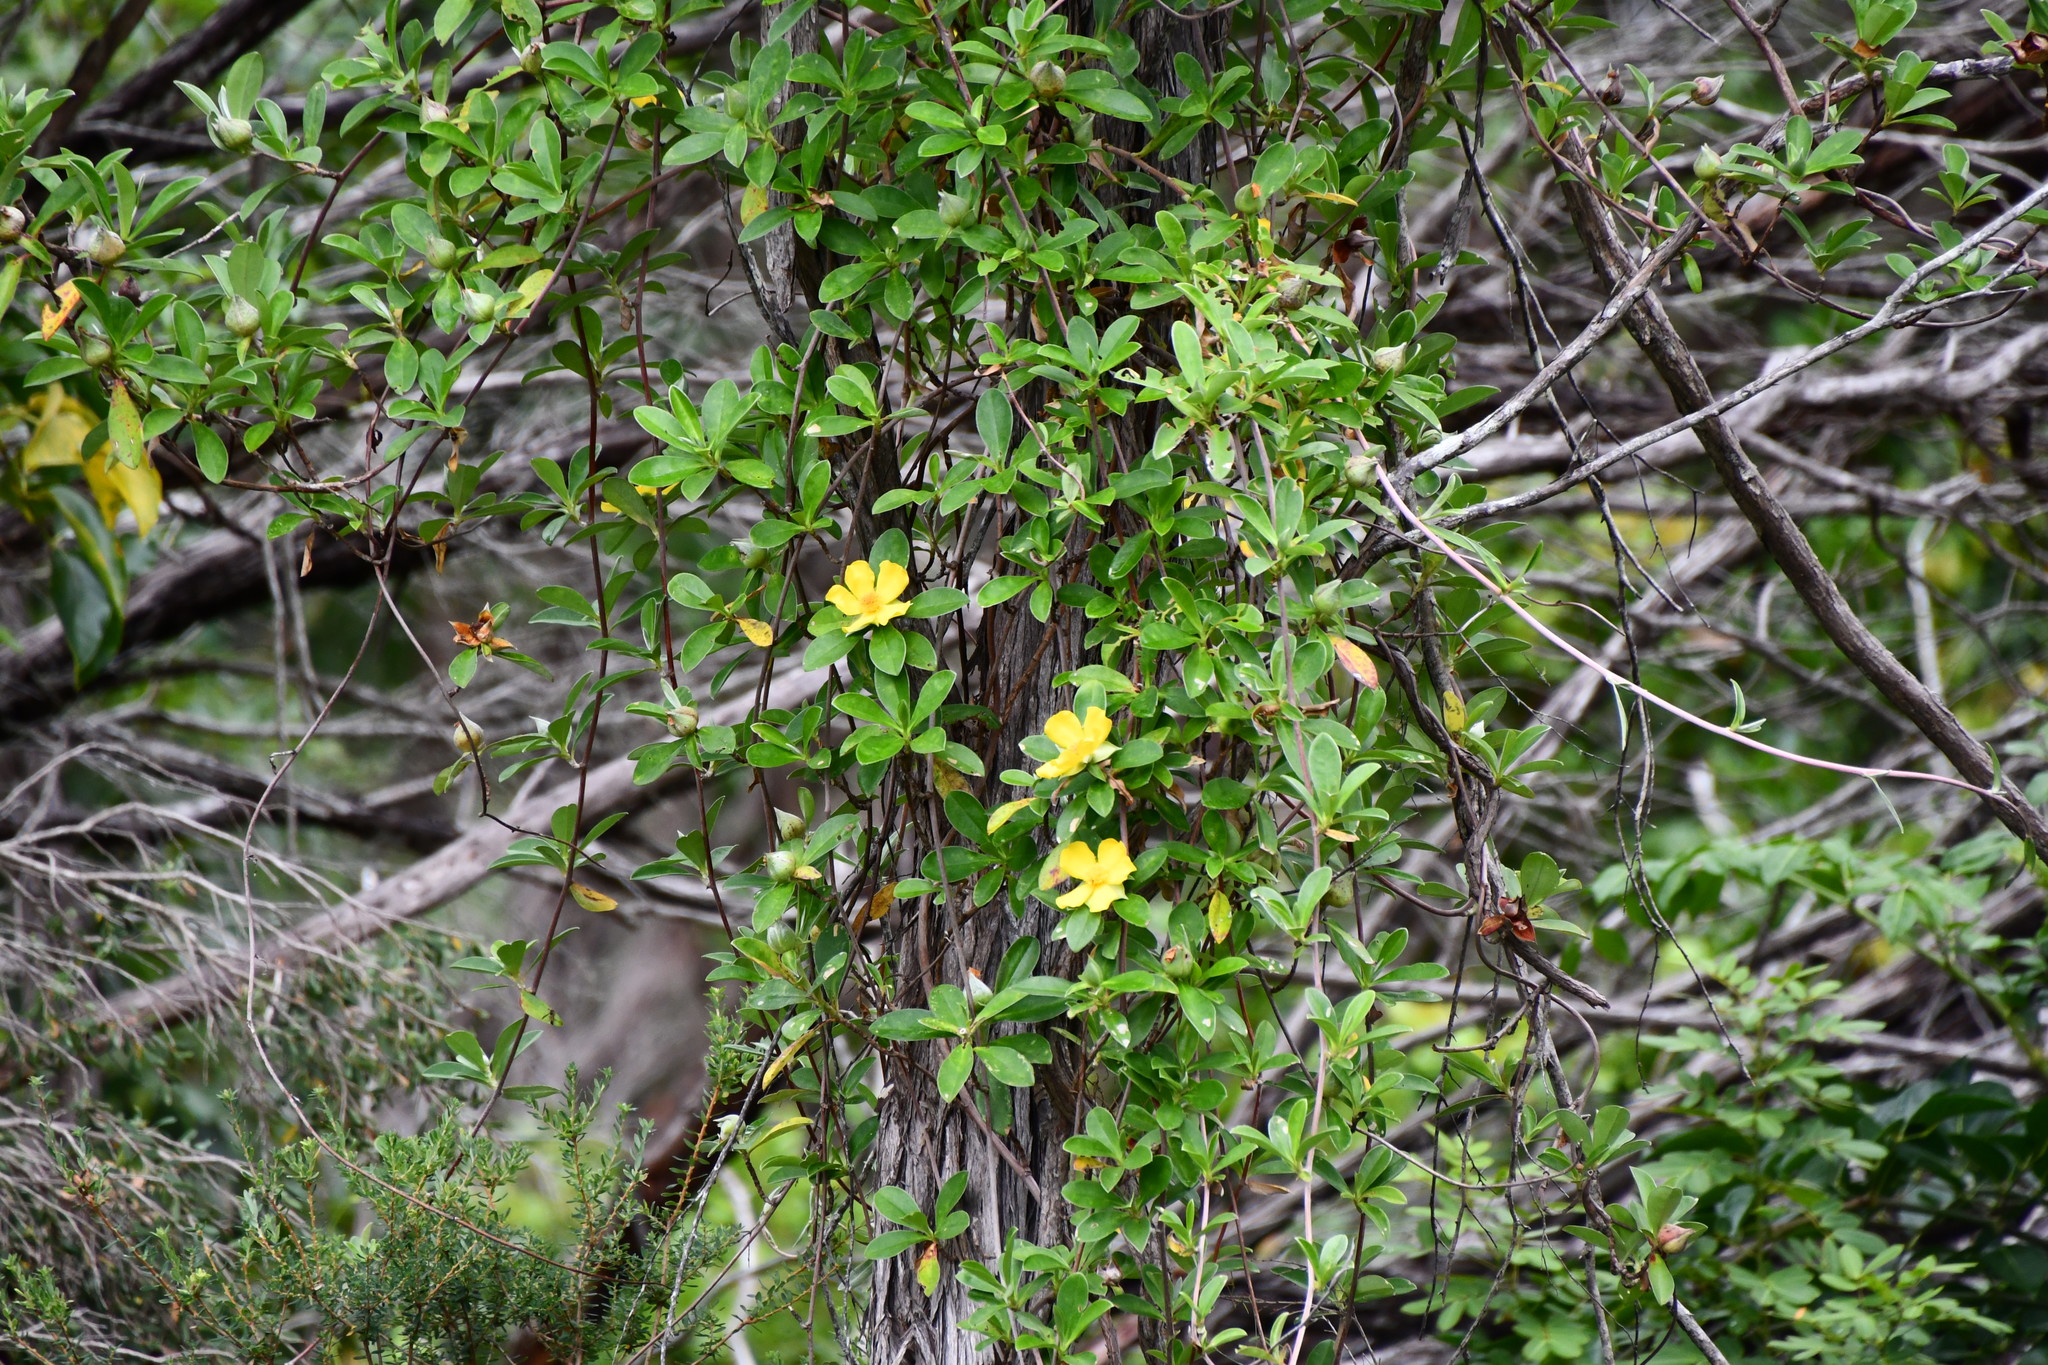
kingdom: Plantae
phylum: Tracheophyta
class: Magnoliopsida
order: Dilleniales
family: Dilleniaceae
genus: Hibbertia
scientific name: Hibbertia scandens
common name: Climbing guinea-flower
